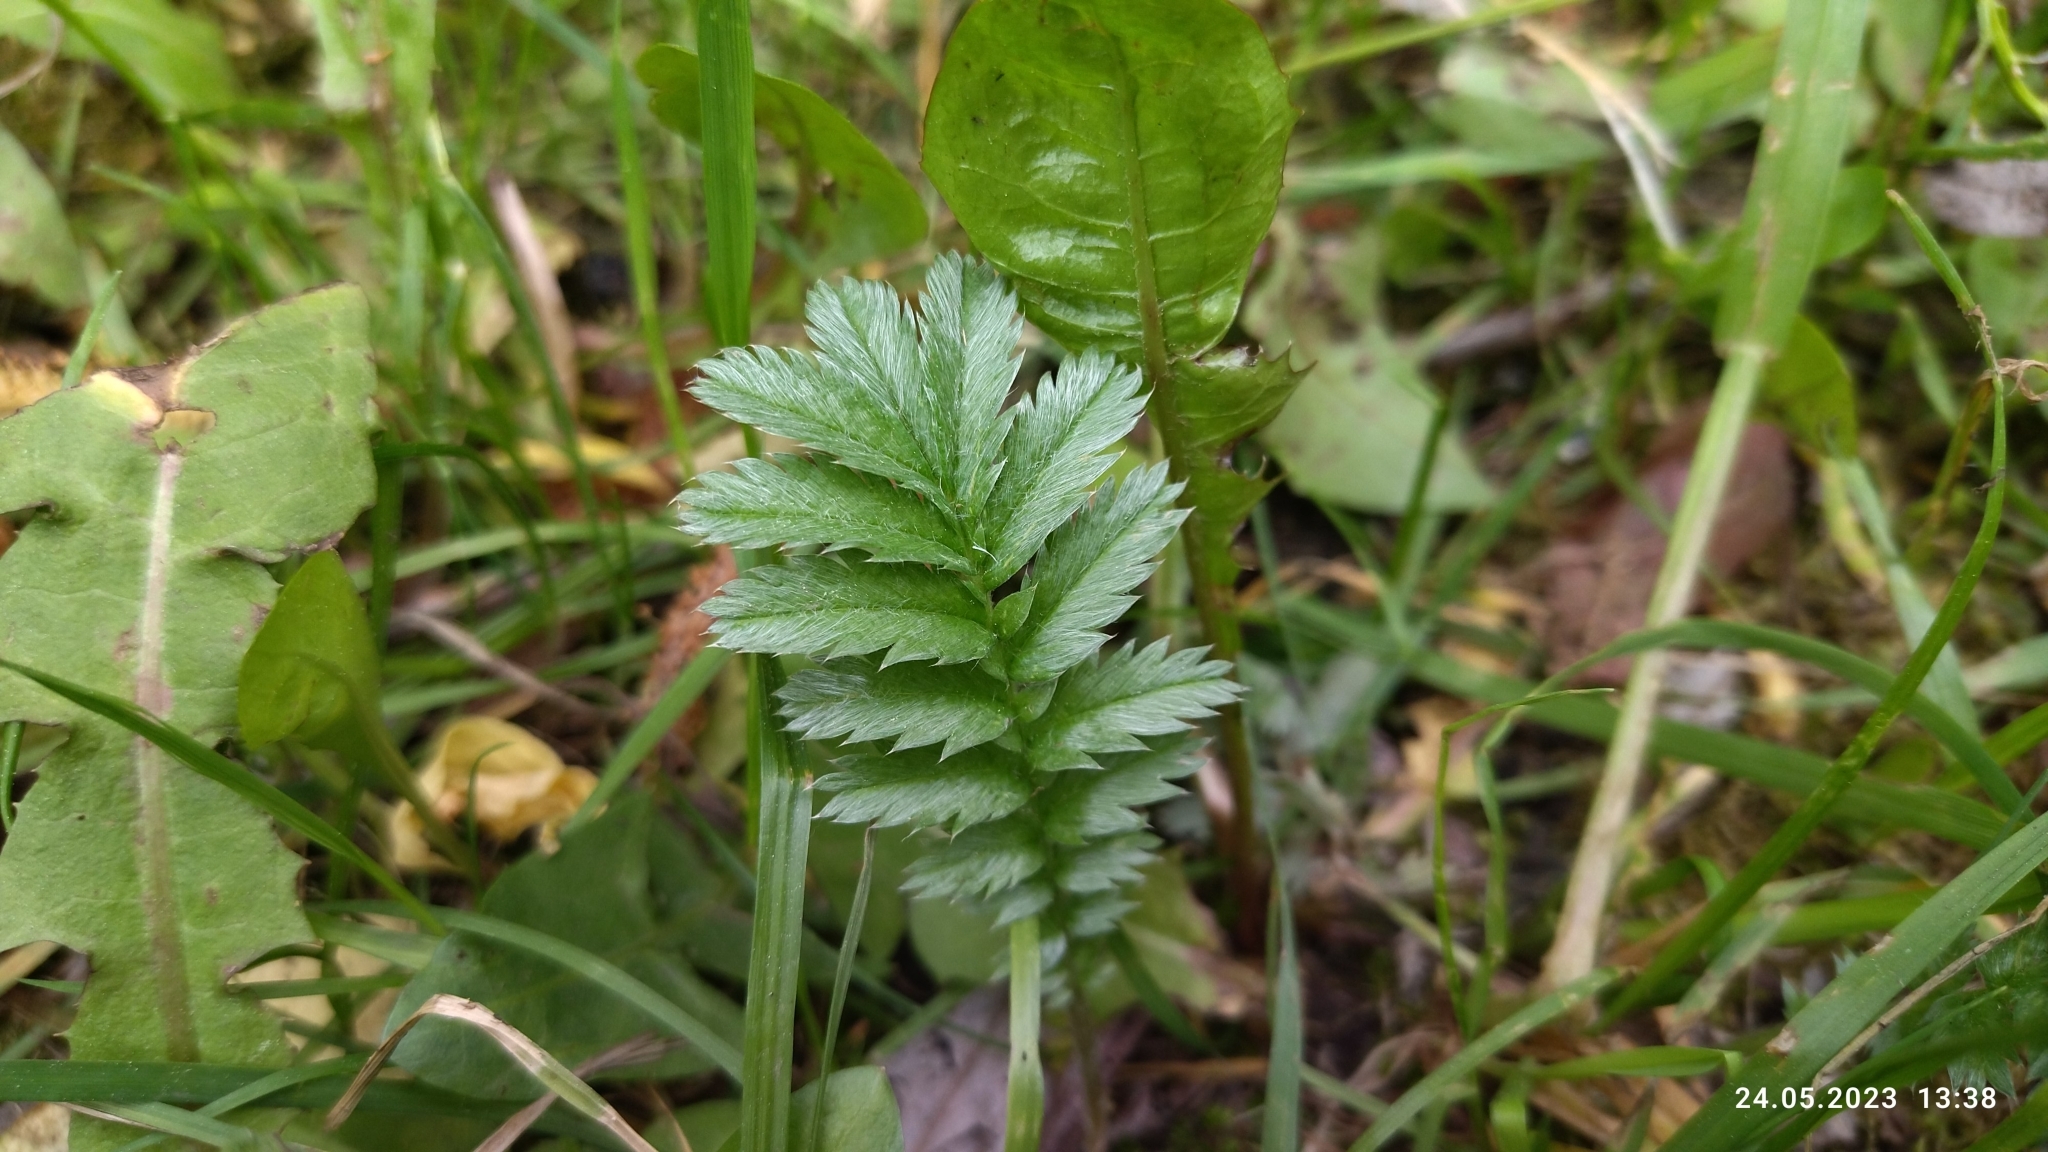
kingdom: Plantae
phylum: Tracheophyta
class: Magnoliopsida
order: Rosales
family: Rosaceae
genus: Argentina
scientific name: Argentina anserina
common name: Common silverweed
